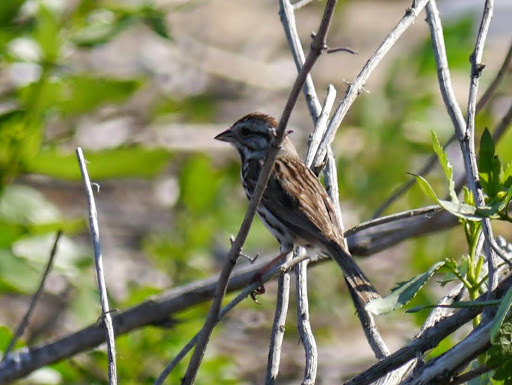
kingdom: Animalia
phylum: Chordata
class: Aves
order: Passeriformes
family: Passerellidae
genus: Melospiza
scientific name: Melospiza melodia
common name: Song sparrow
